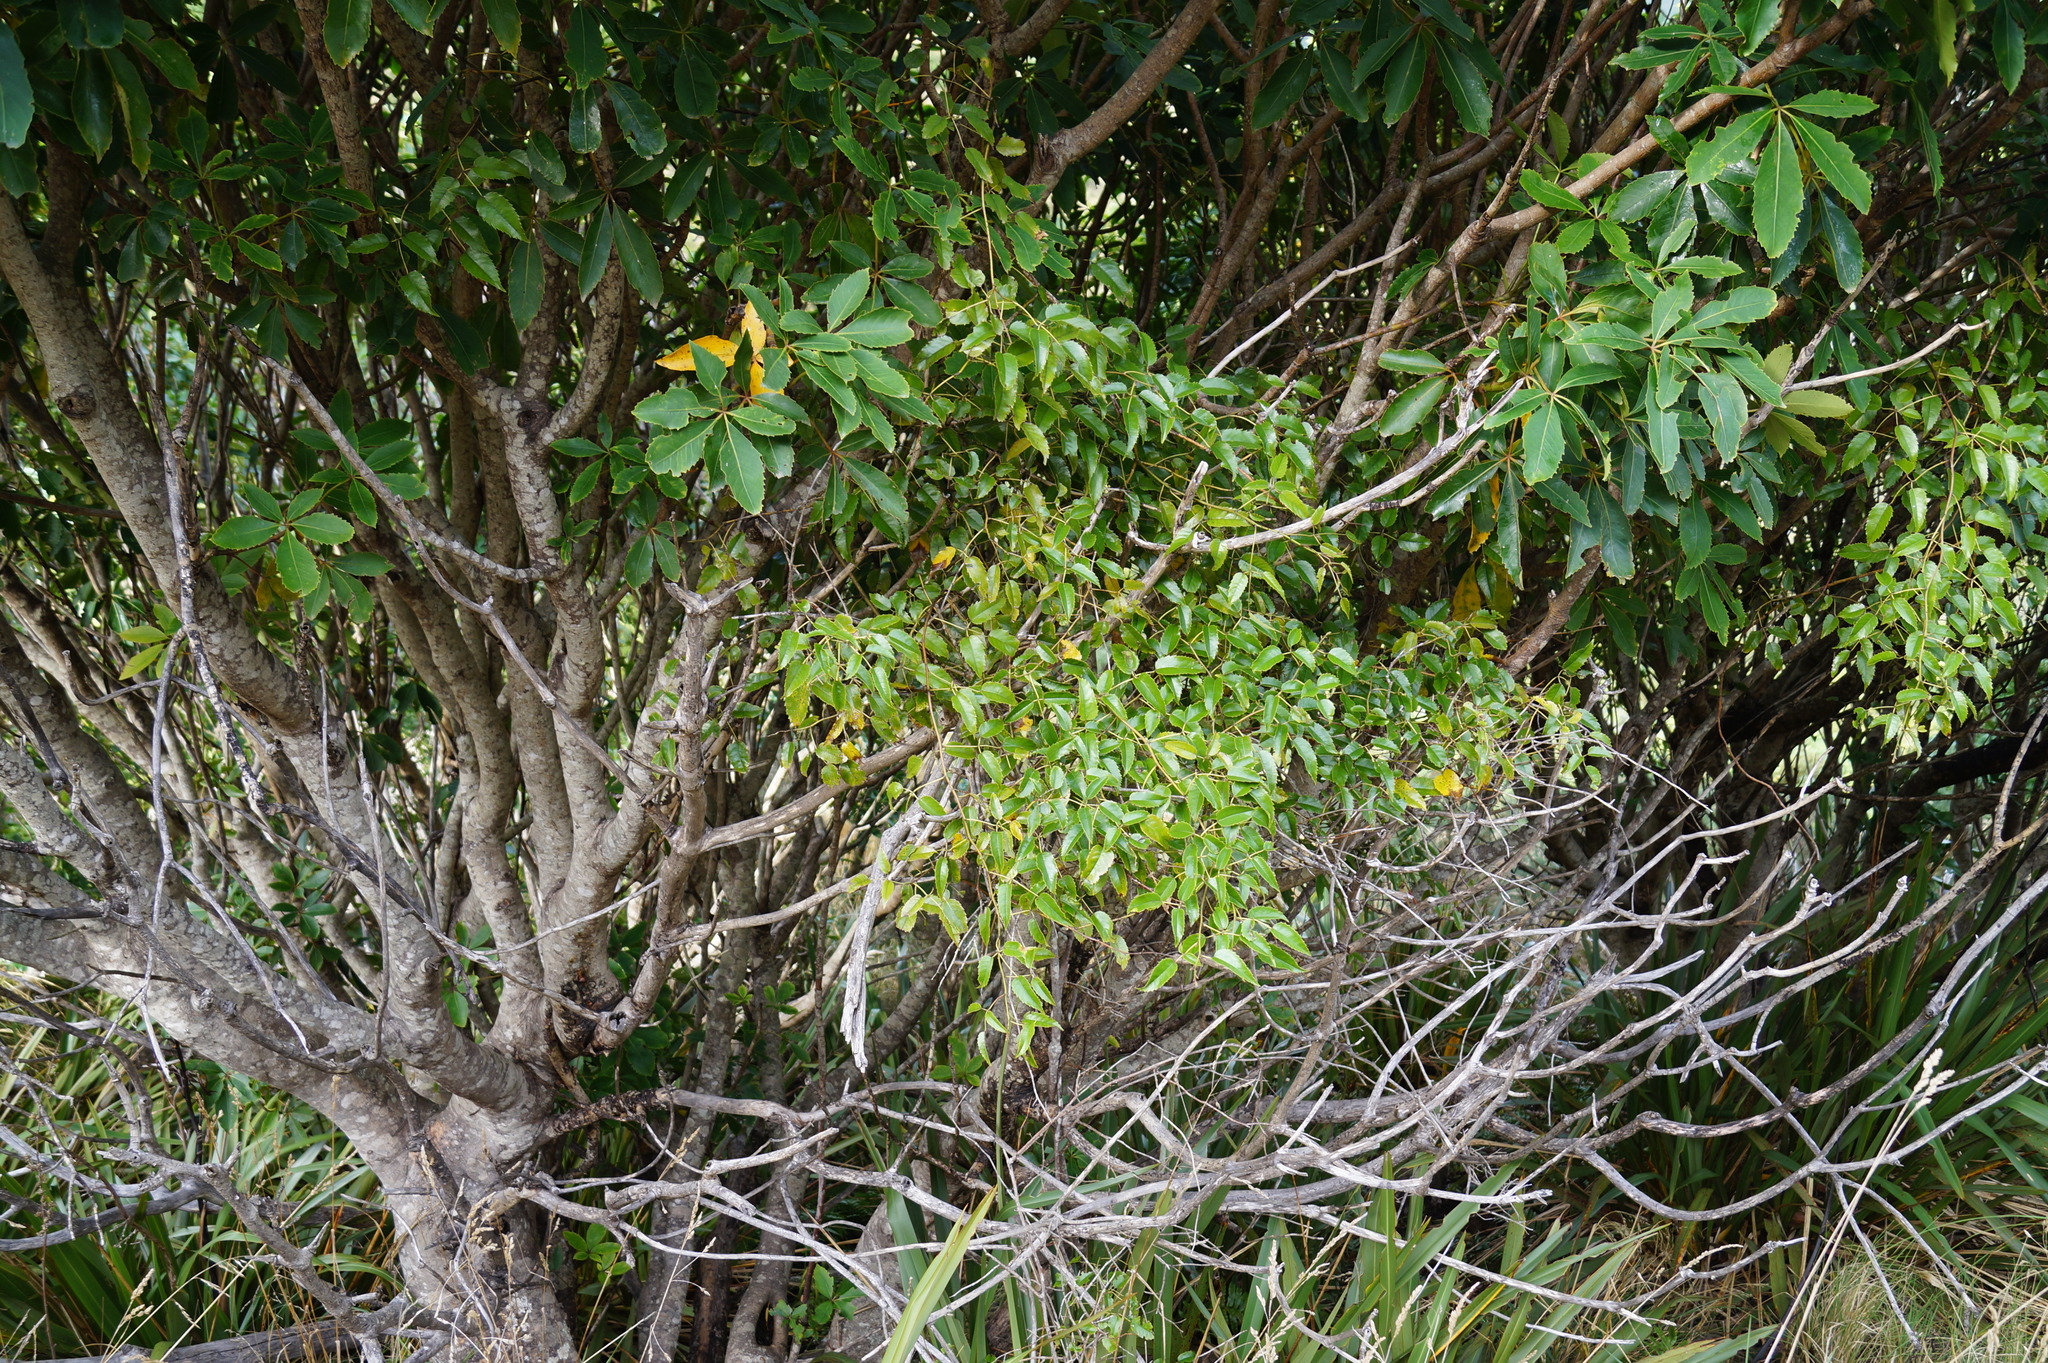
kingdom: Plantae
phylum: Tracheophyta
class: Magnoliopsida
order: Rosales
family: Rosaceae
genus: Rubus
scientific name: Rubus cissoides
